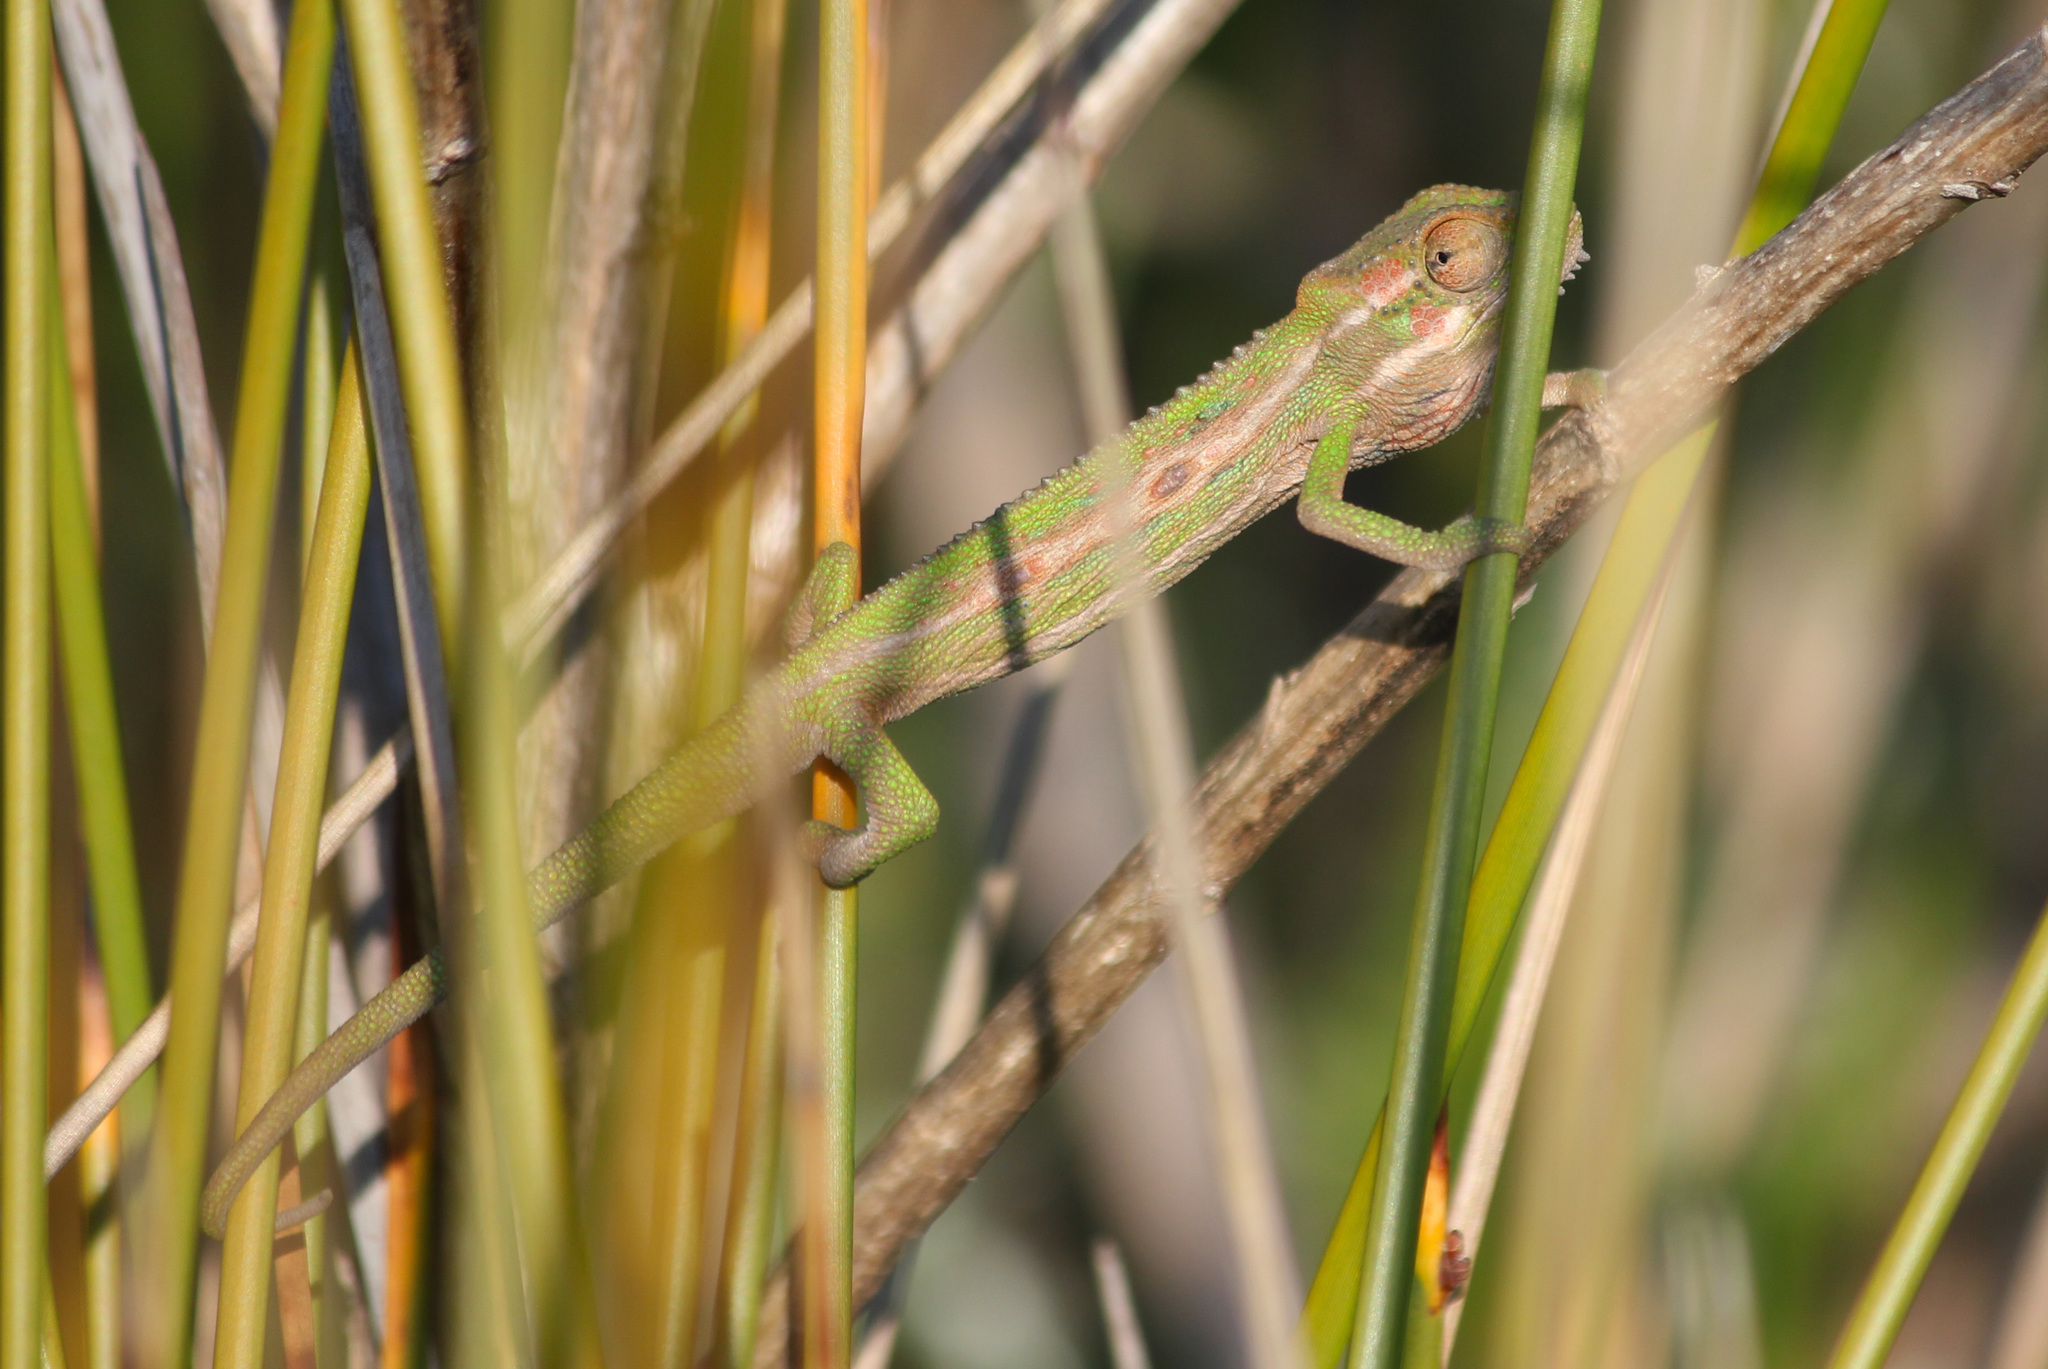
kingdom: Animalia
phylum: Chordata
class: Squamata
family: Chamaeleonidae
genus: Bradypodion
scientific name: Bradypodion pumilum
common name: Cape dwarf chameleon
